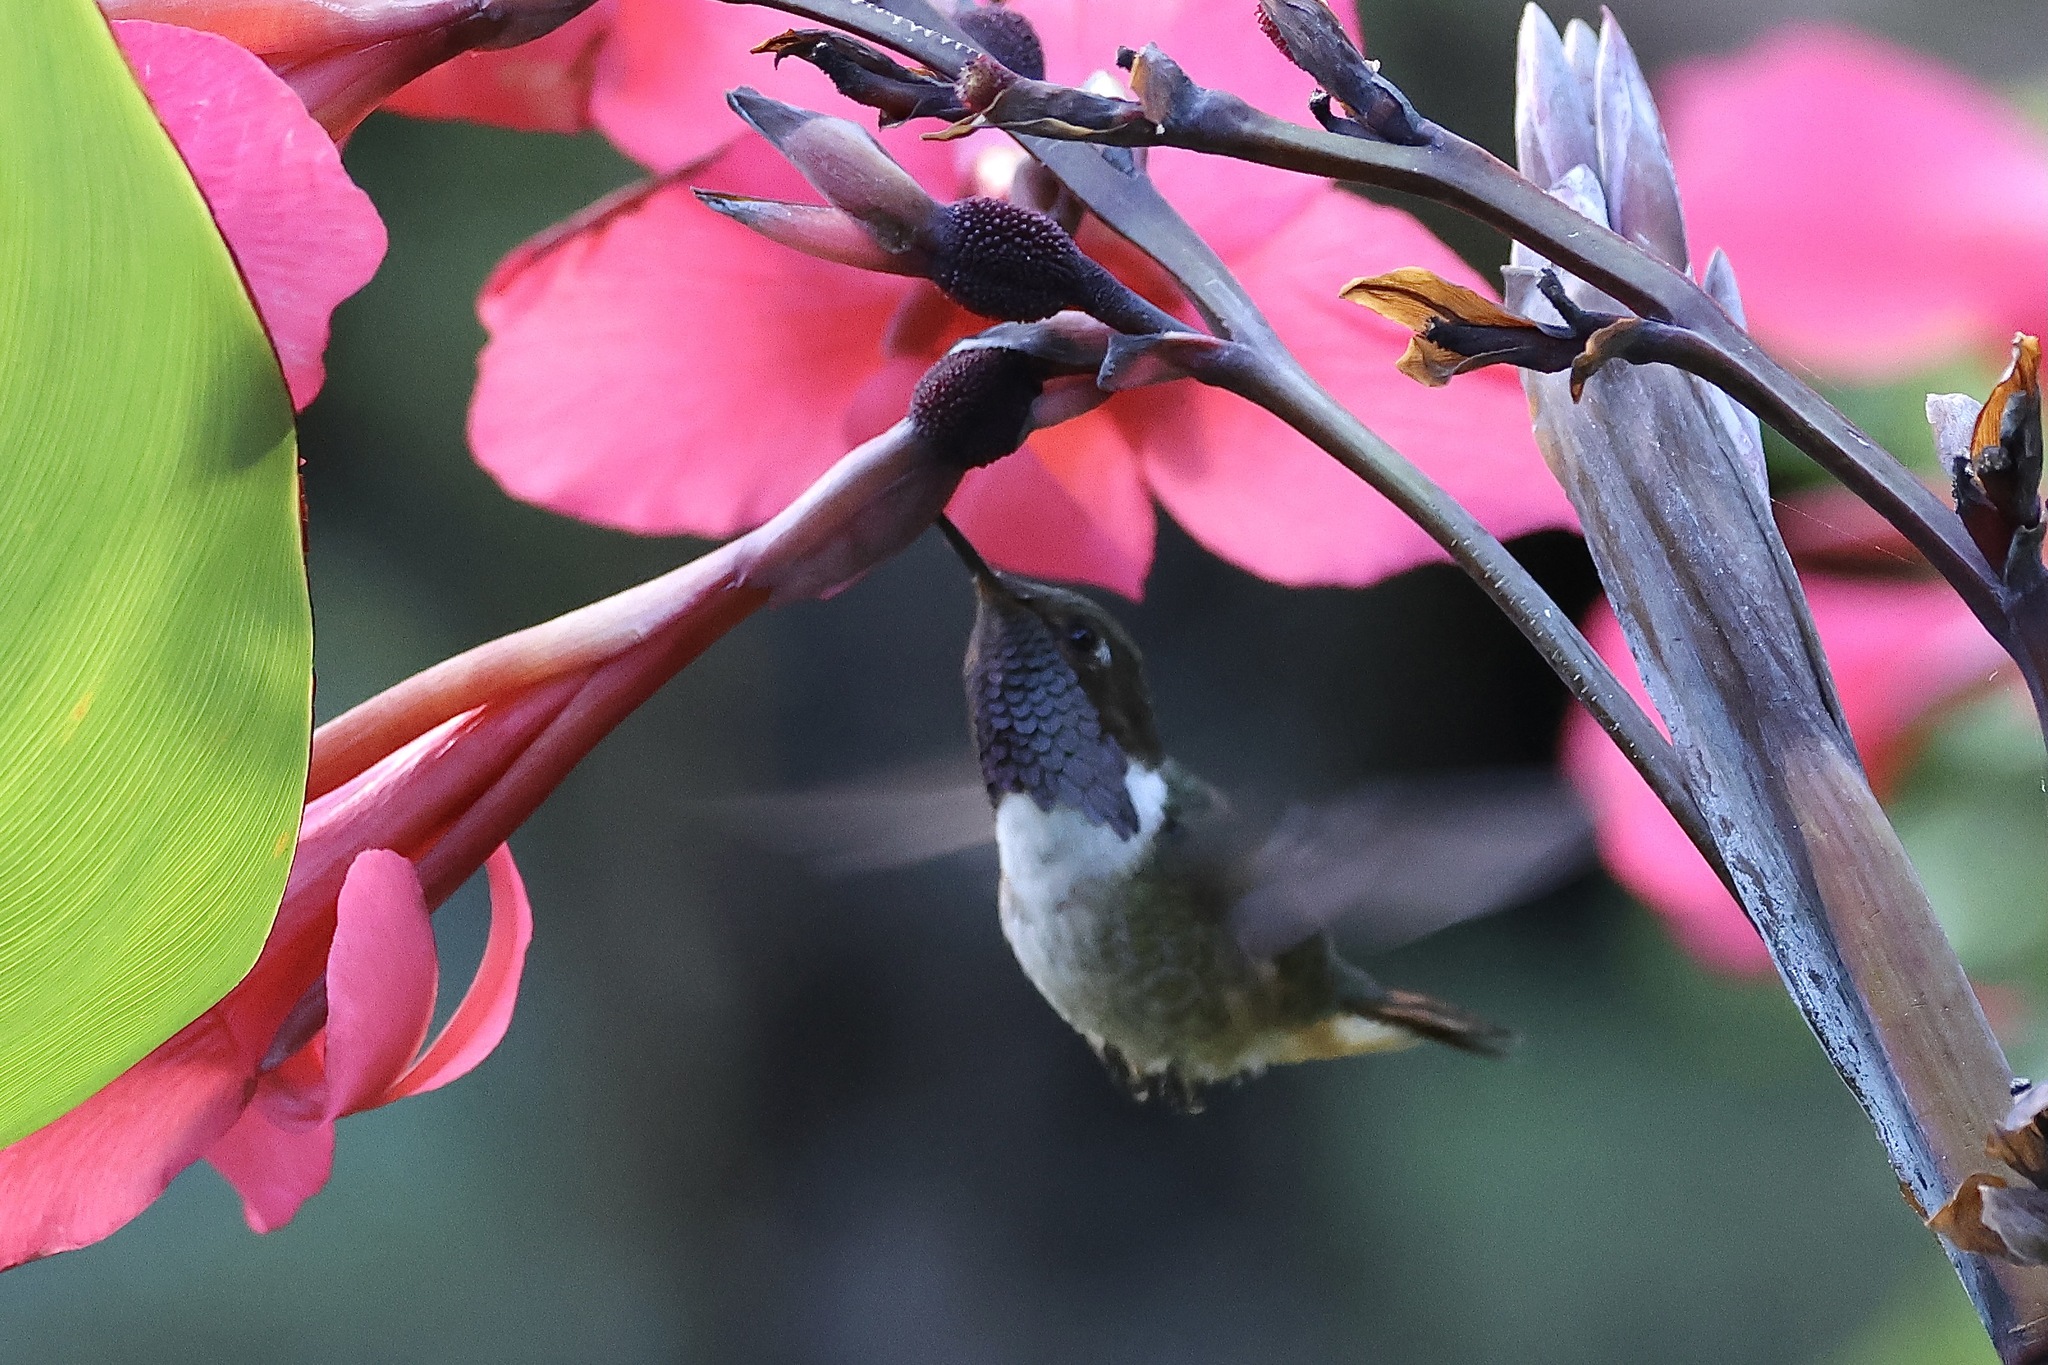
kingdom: Animalia
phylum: Chordata
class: Aves
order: Apodiformes
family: Trochilidae
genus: Selasphorus
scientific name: Selasphorus flammula
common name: Volcano hummingbird
